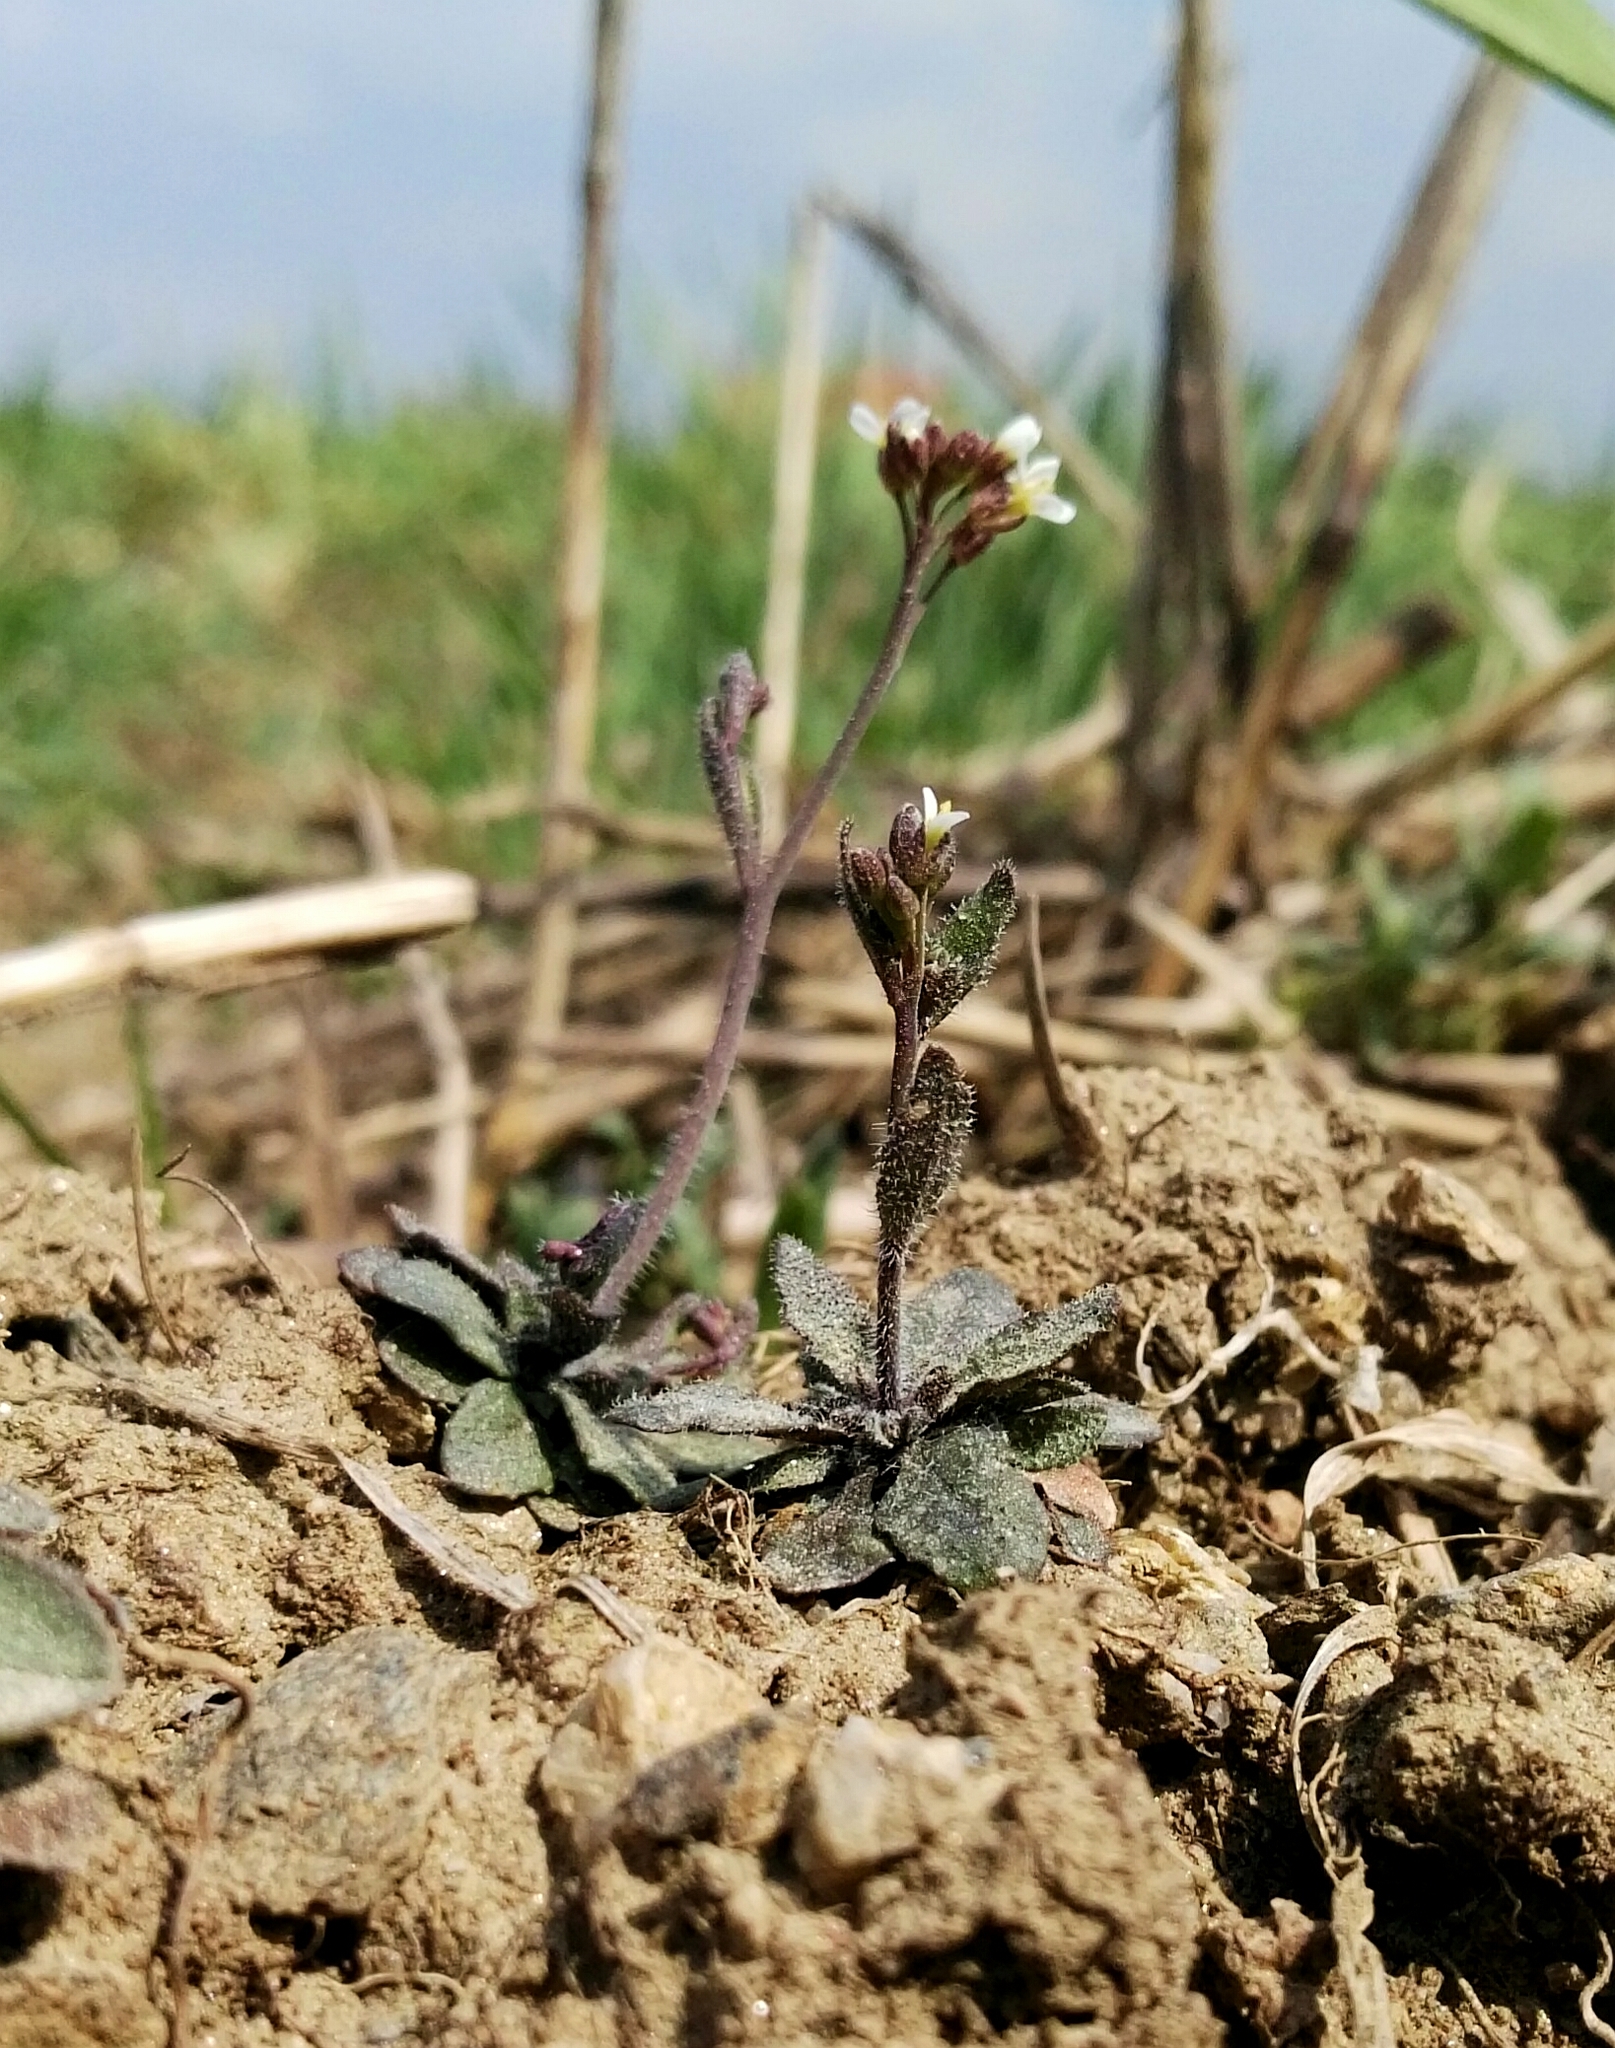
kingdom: Plantae
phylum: Tracheophyta
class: Magnoliopsida
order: Brassicales
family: Brassicaceae
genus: Draba
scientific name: Draba verna
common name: Spring draba
